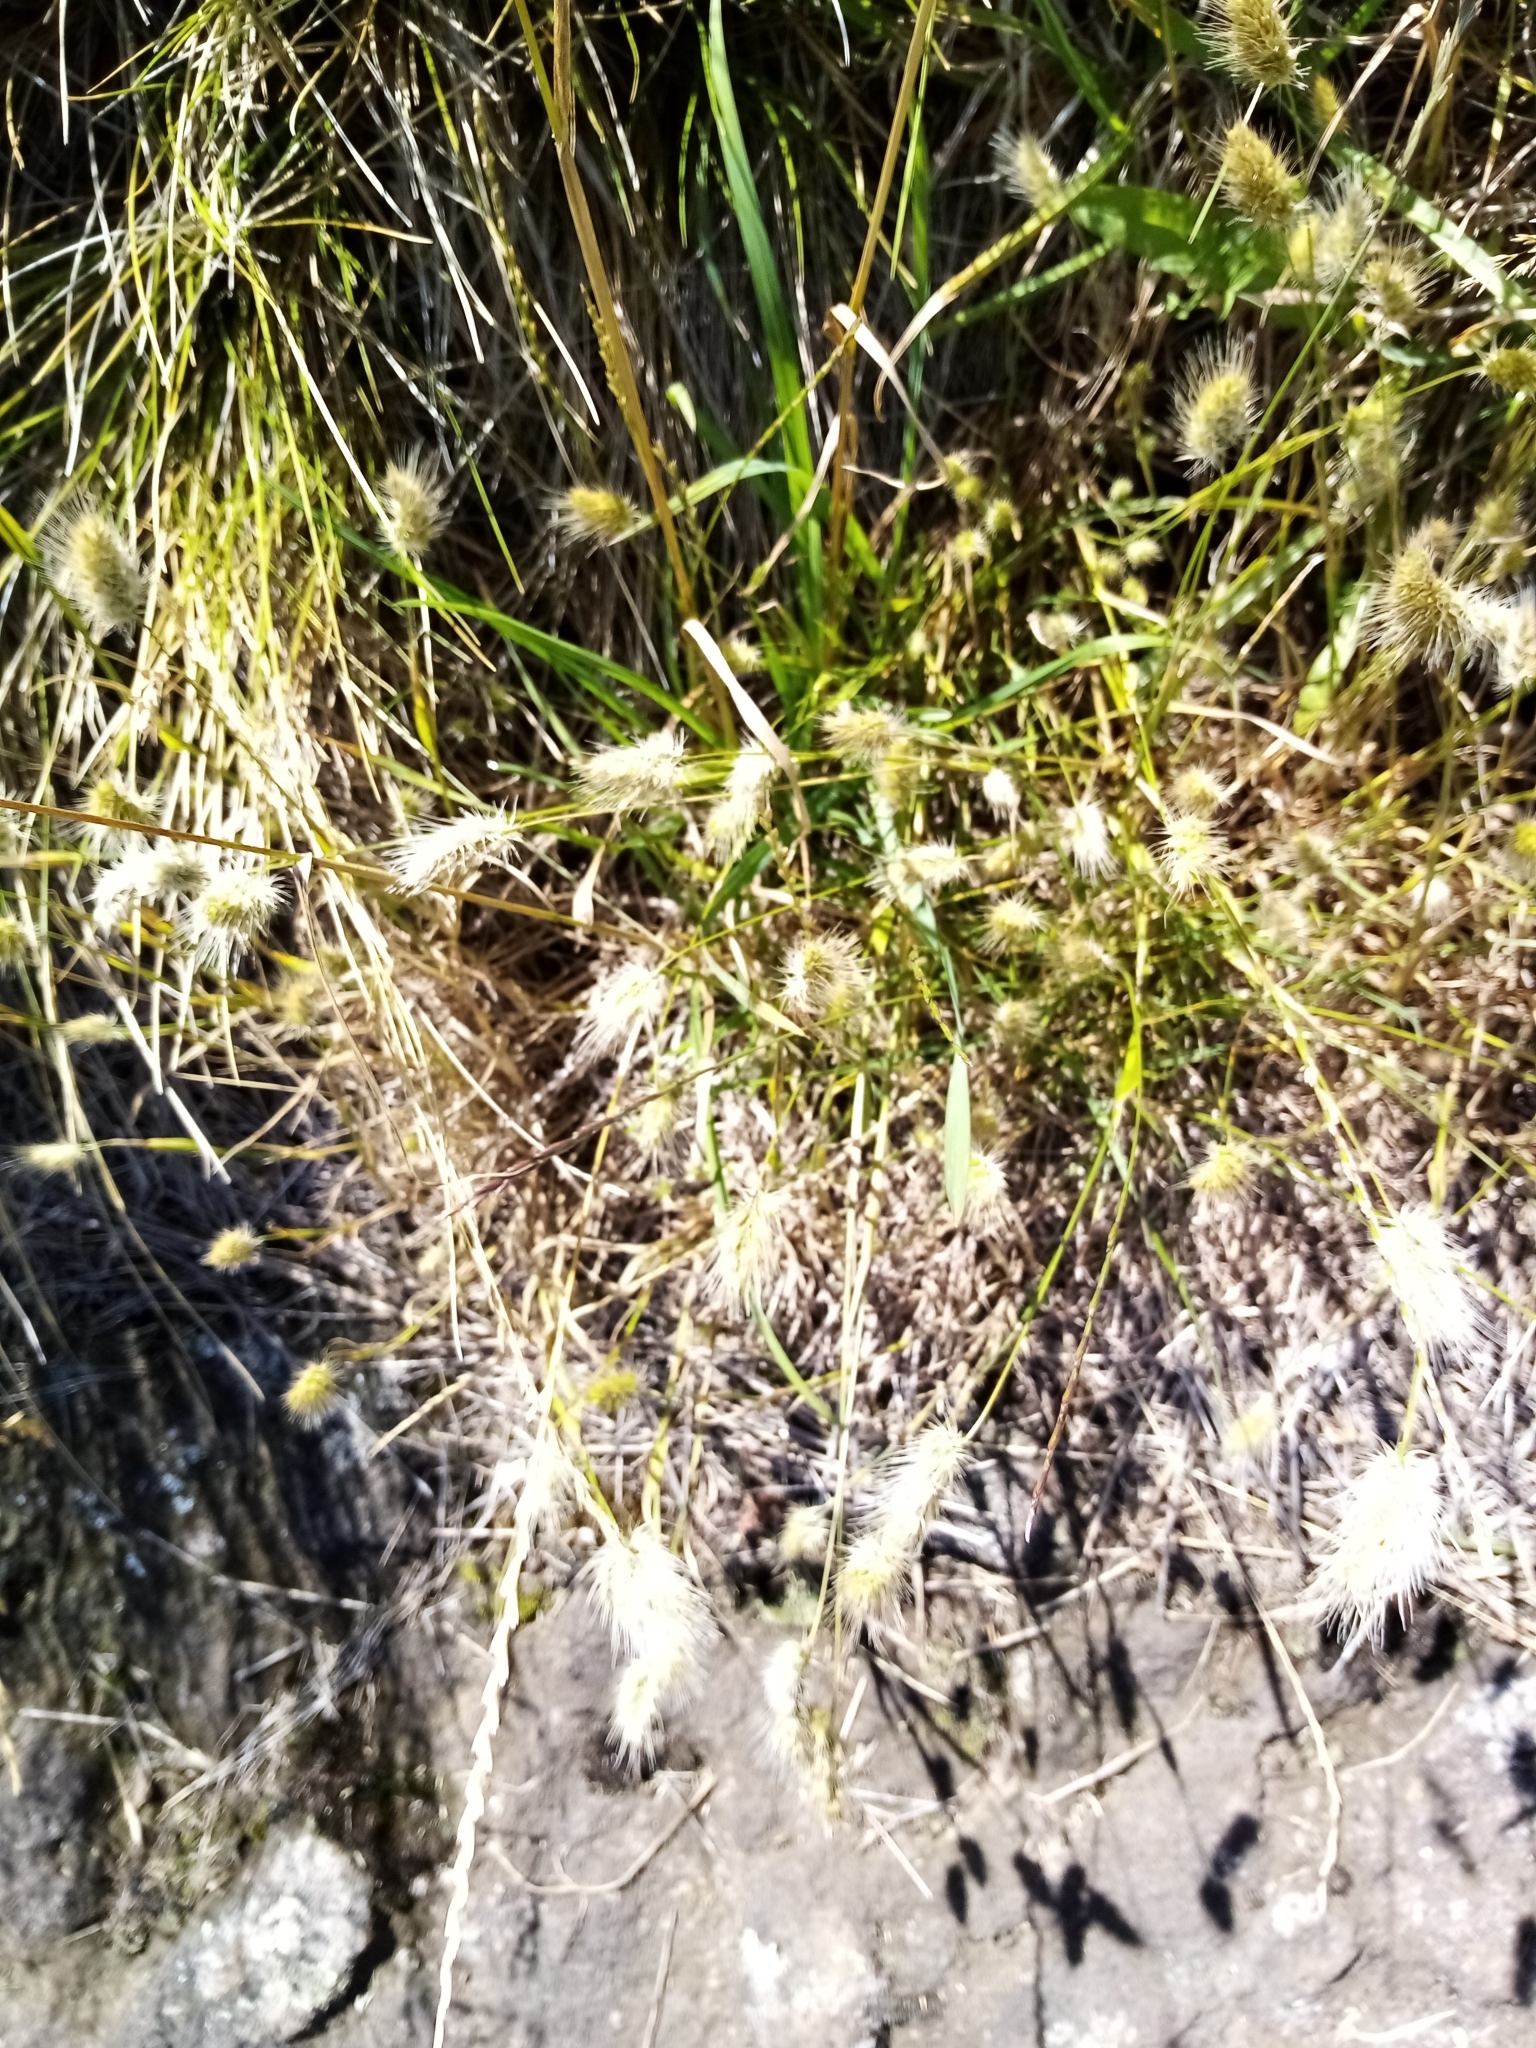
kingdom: Plantae
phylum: Tracheophyta
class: Liliopsida
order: Poales
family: Poaceae
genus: Cynosurus
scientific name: Cynosurus echinatus
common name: Rough dog's-tail
